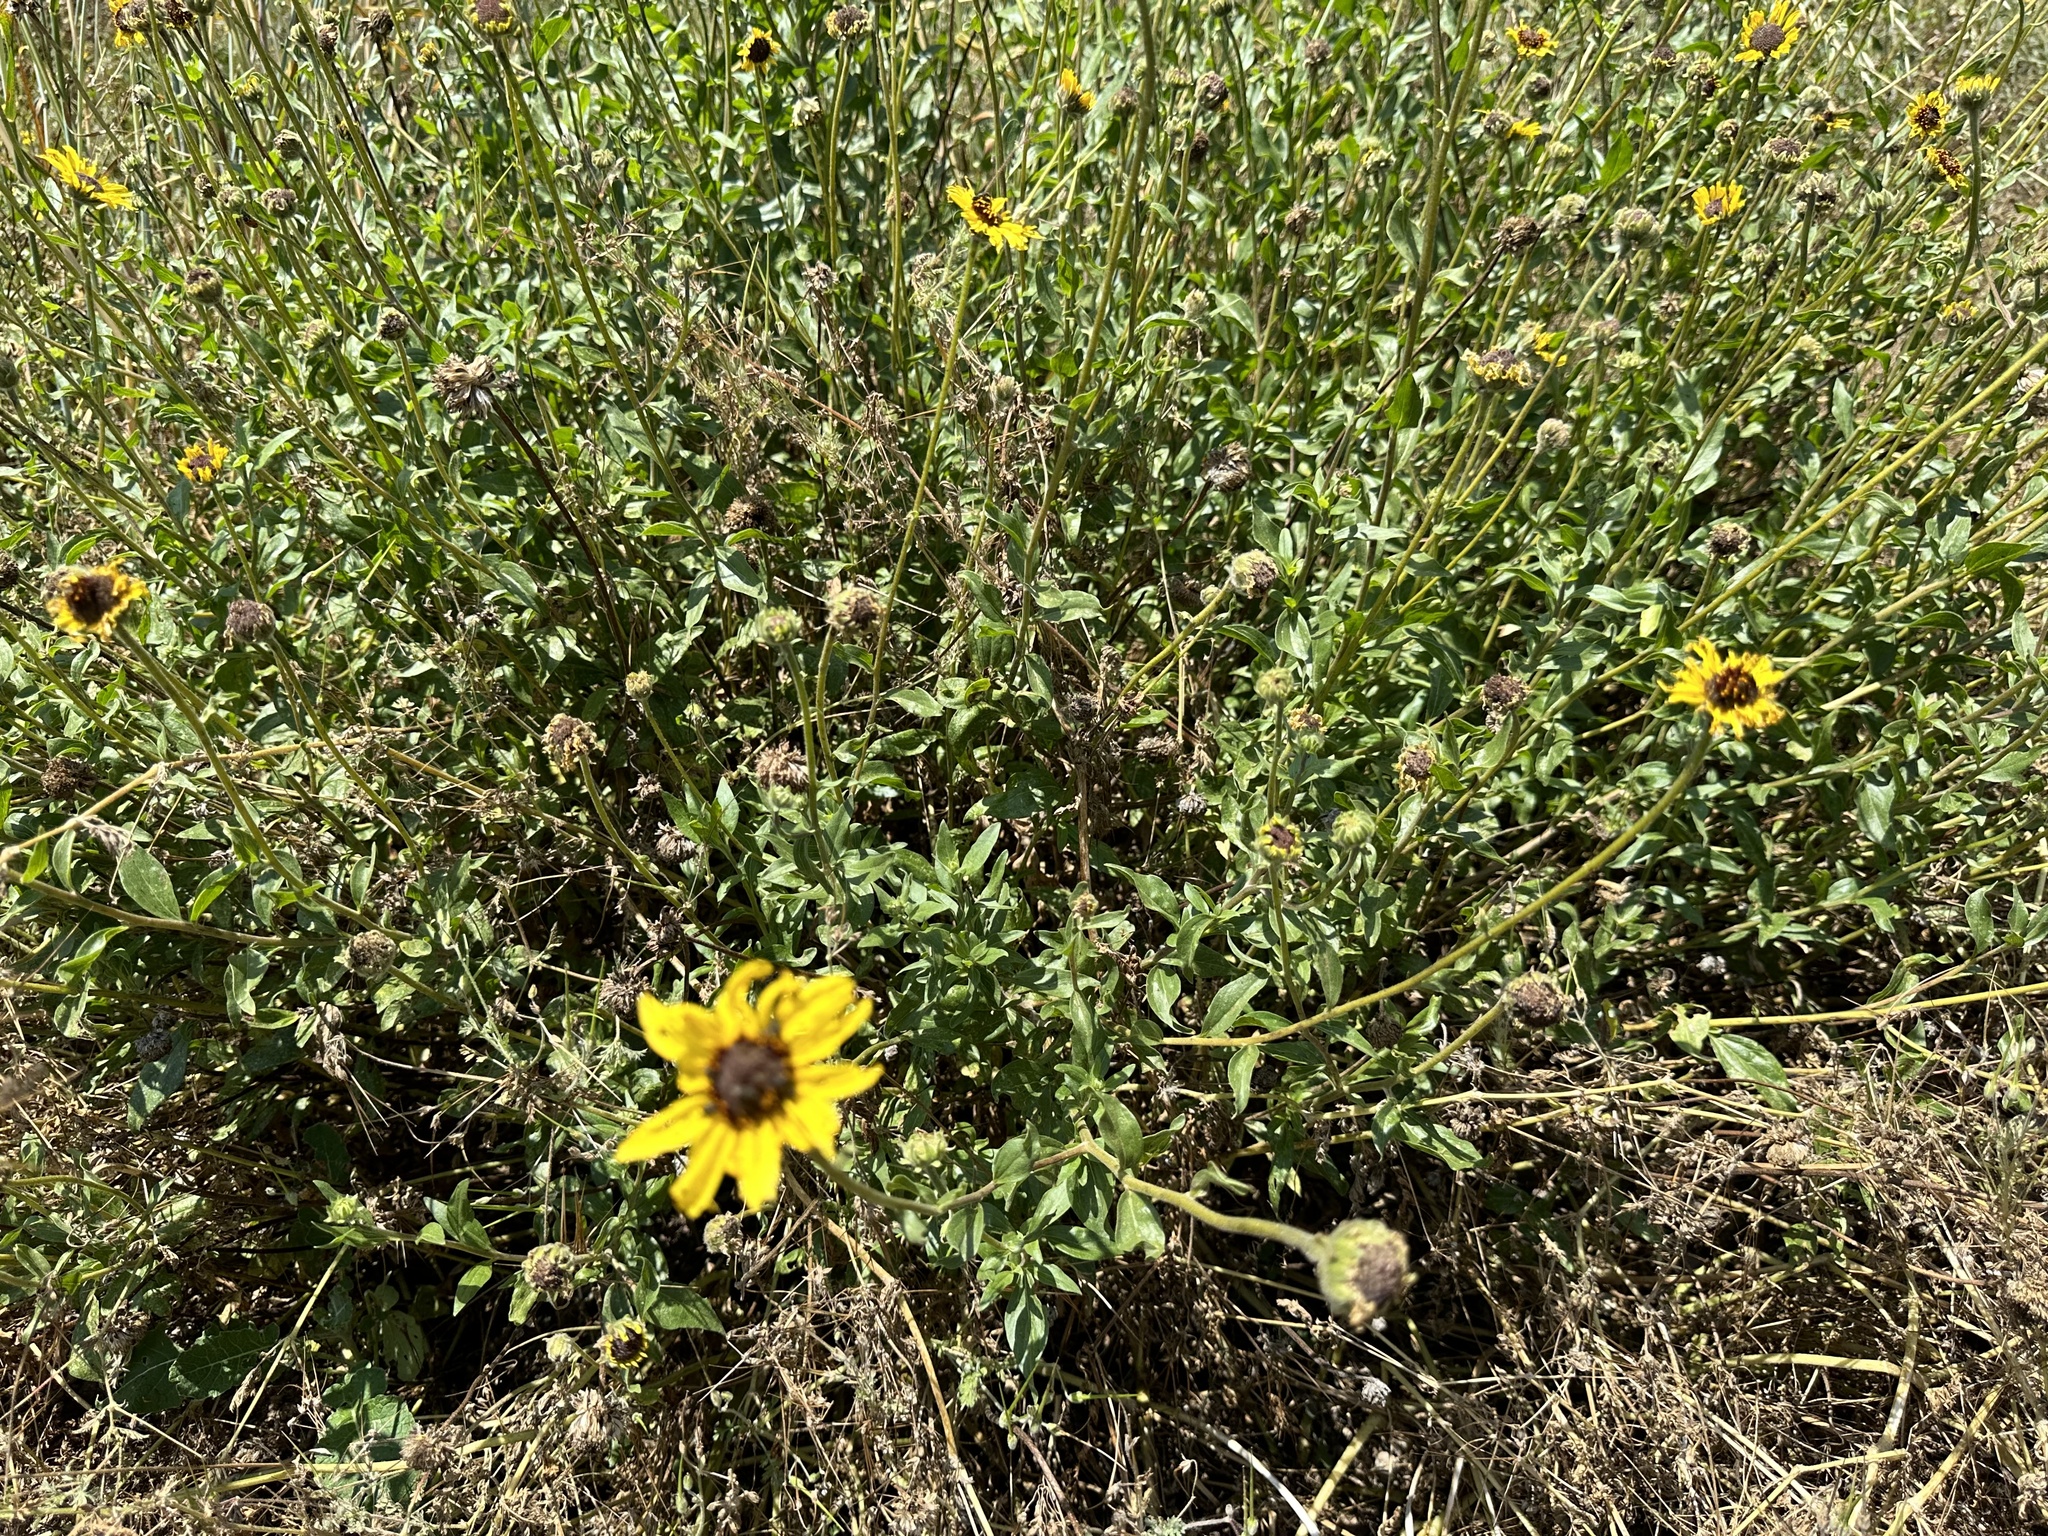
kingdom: Plantae
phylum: Tracheophyta
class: Magnoliopsida
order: Asterales
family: Asteraceae
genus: Encelia
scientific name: Encelia californica
